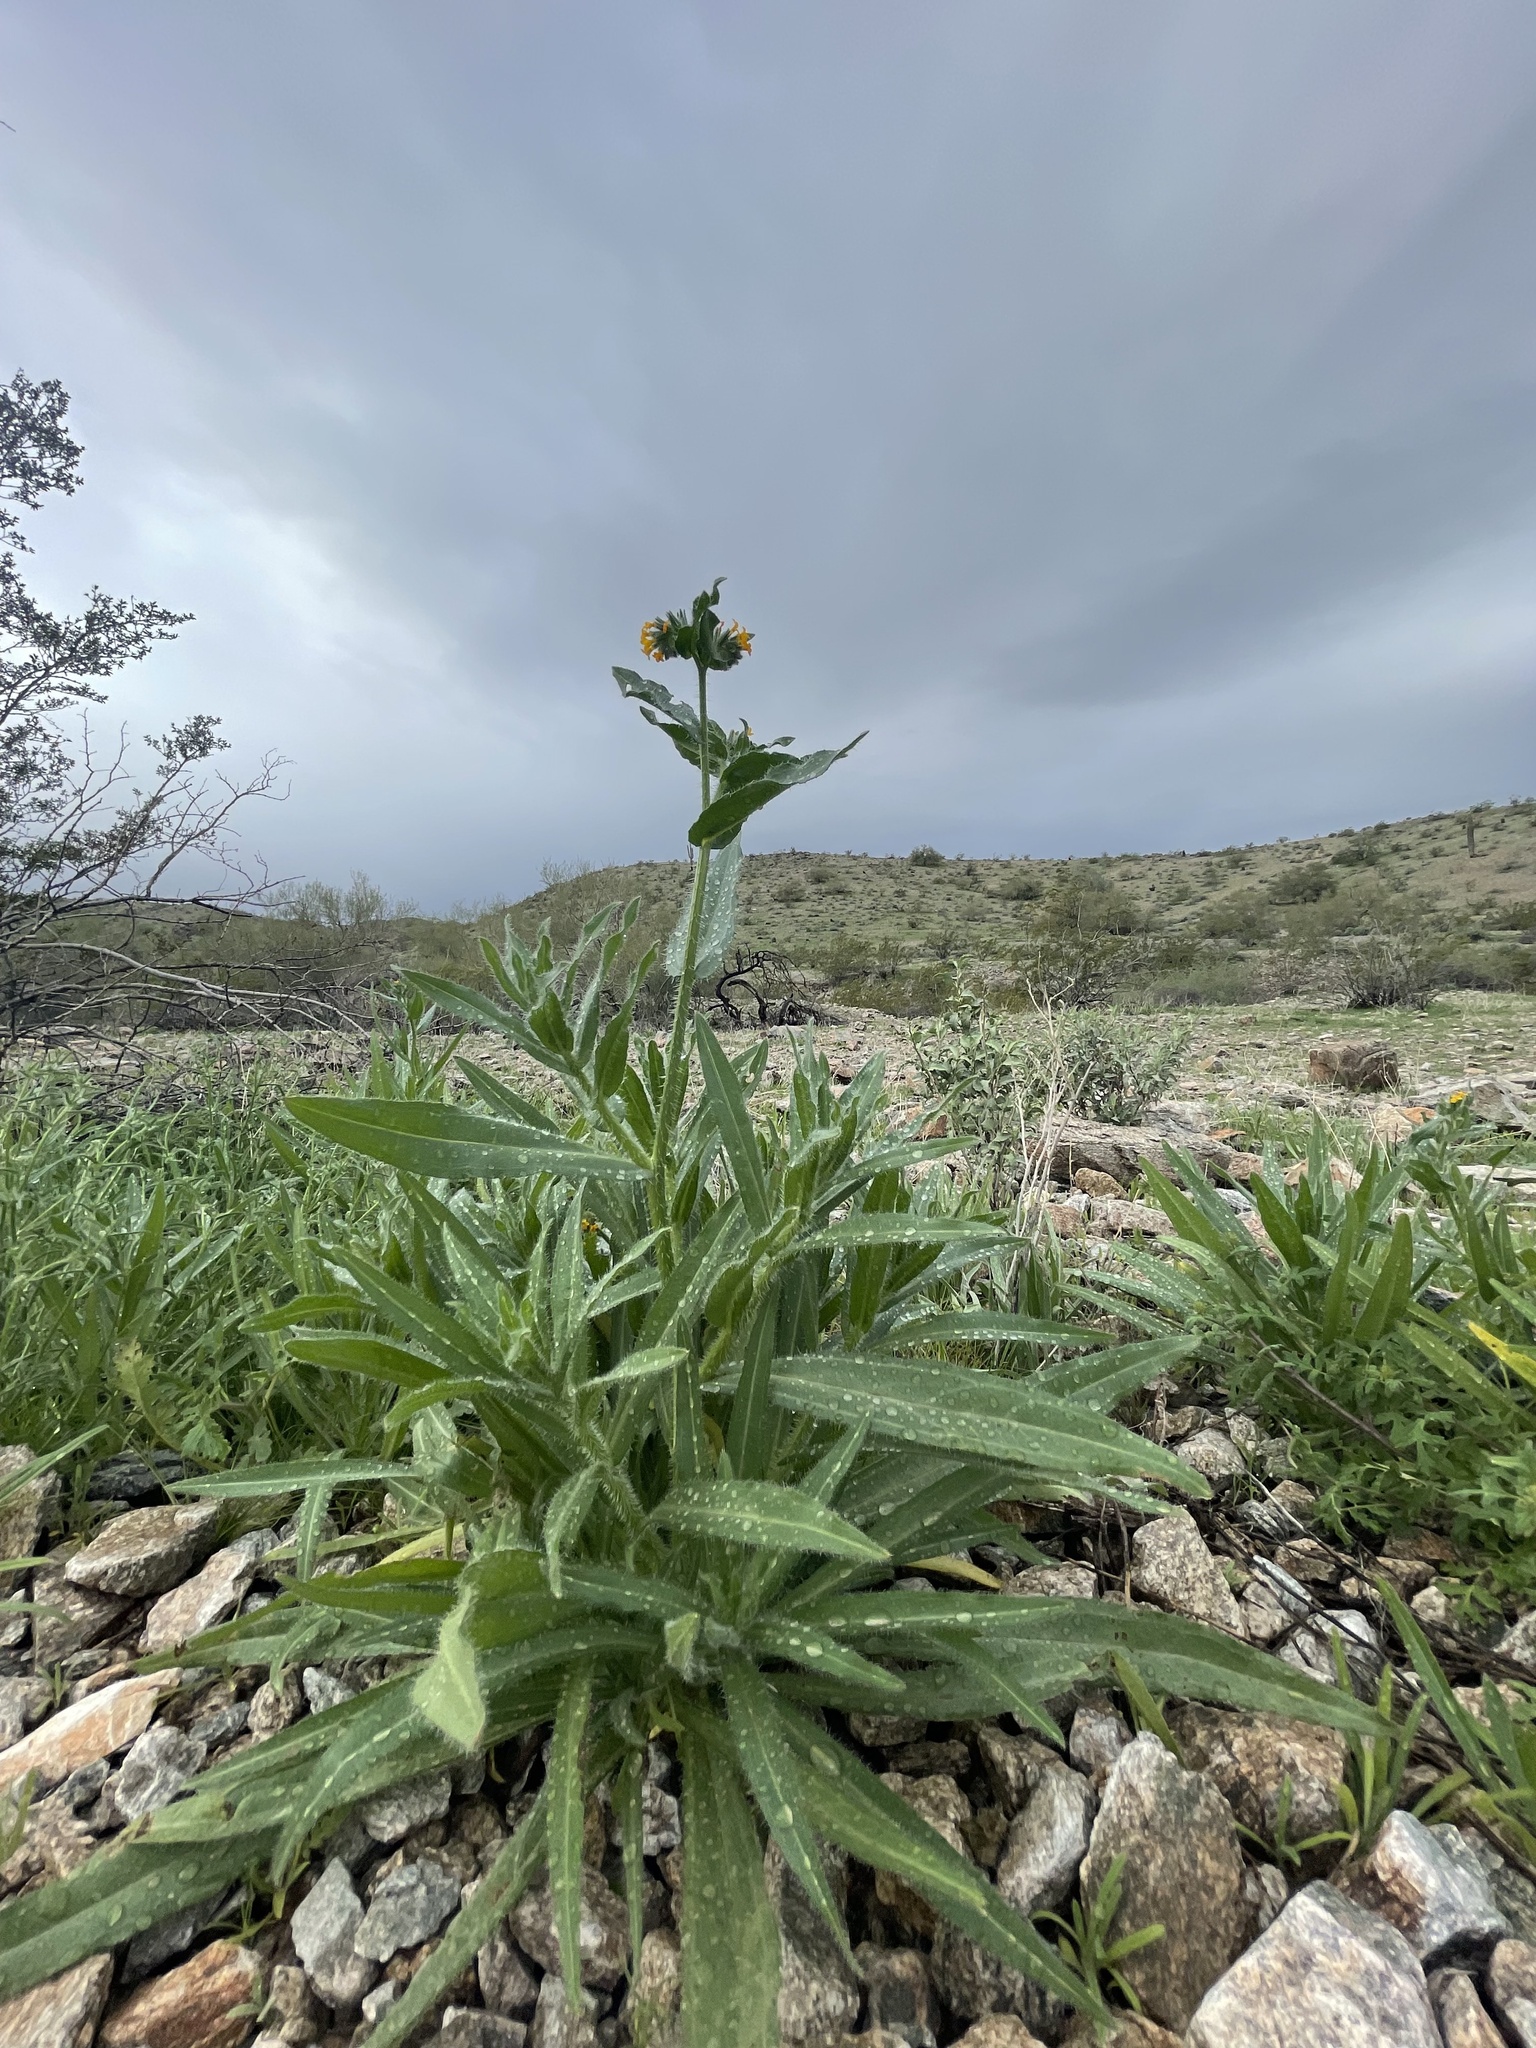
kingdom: Plantae
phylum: Tracheophyta
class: Magnoliopsida
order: Boraginales
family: Boraginaceae
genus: Amsinckia
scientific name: Amsinckia tessellata
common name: Tessellate fiddleneck
